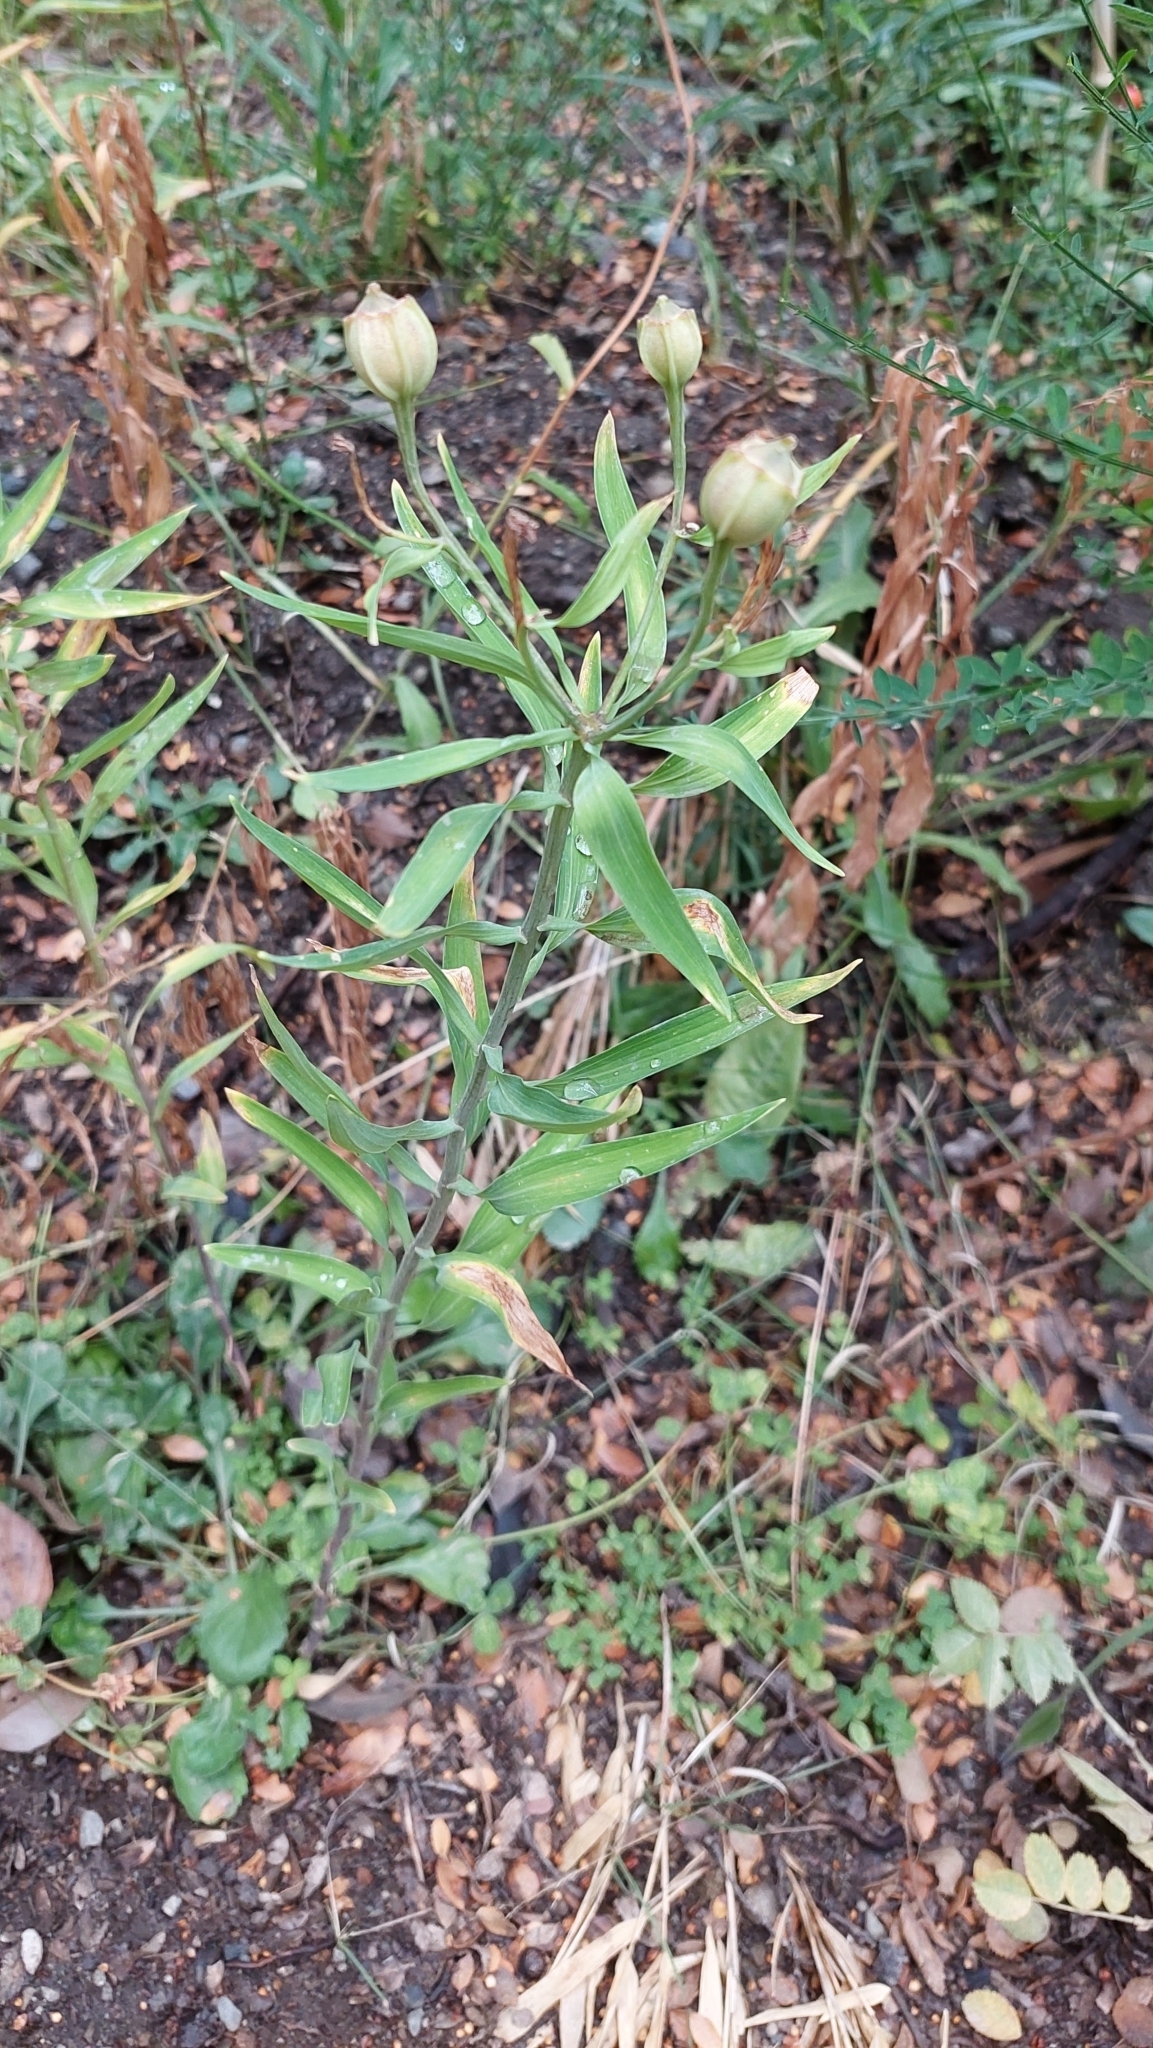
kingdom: Plantae
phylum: Tracheophyta
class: Liliopsida
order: Liliales
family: Alstroemeriaceae
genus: Alstroemeria
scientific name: Alstroemeria aurea
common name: Peruvian lily
